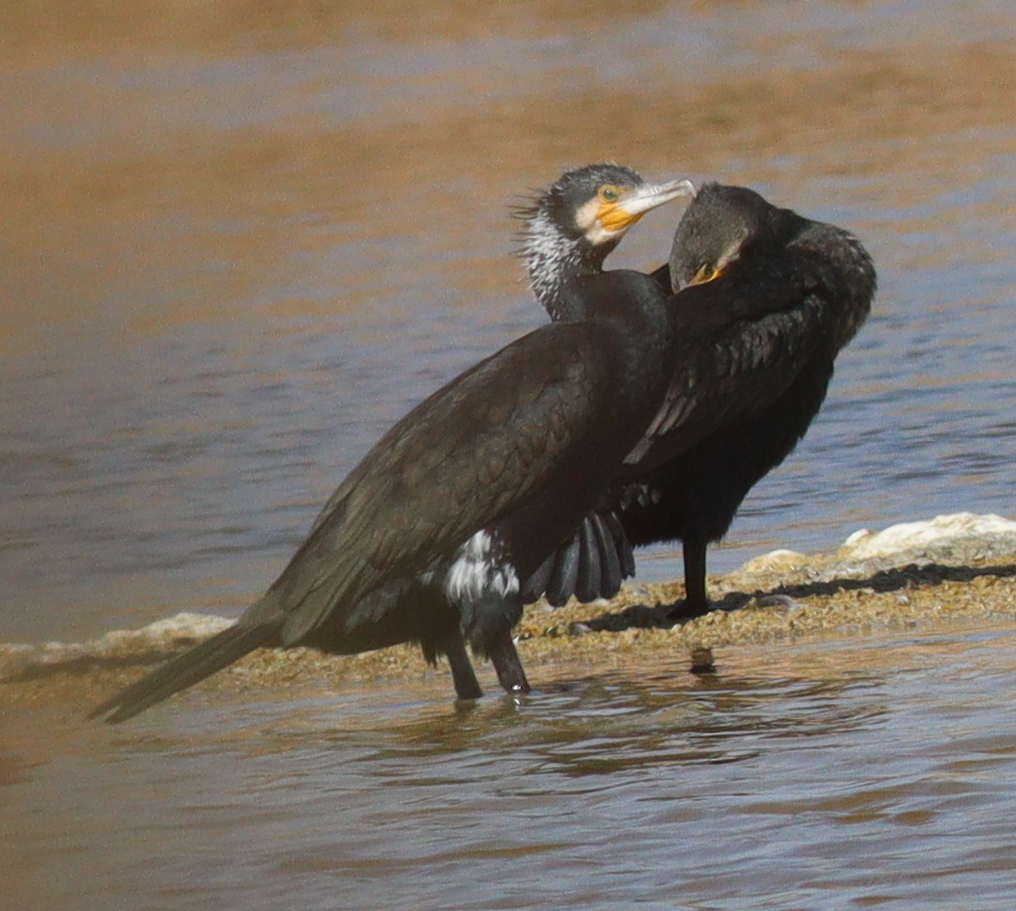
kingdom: Animalia
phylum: Chordata
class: Aves
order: Suliformes
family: Phalacrocoracidae
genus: Phalacrocorax
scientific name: Phalacrocorax carbo
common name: Great cormorant
